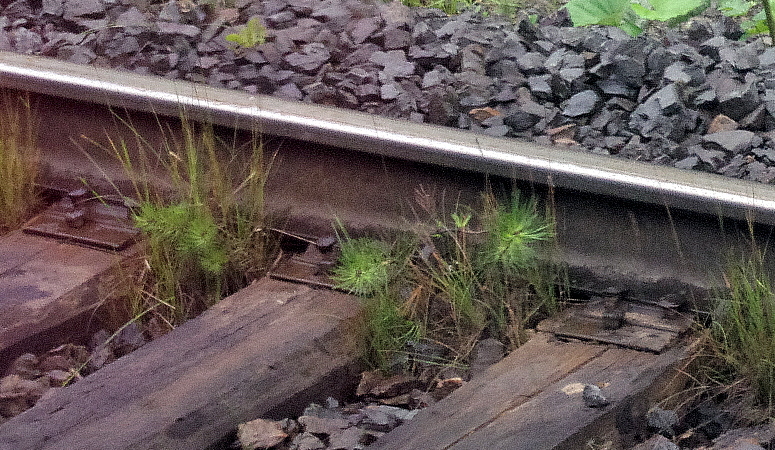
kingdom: Plantae
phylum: Tracheophyta
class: Pinopsida
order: Pinales
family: Pinaceae
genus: Pinus
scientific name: Pinus sylvestris
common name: Scots pine
